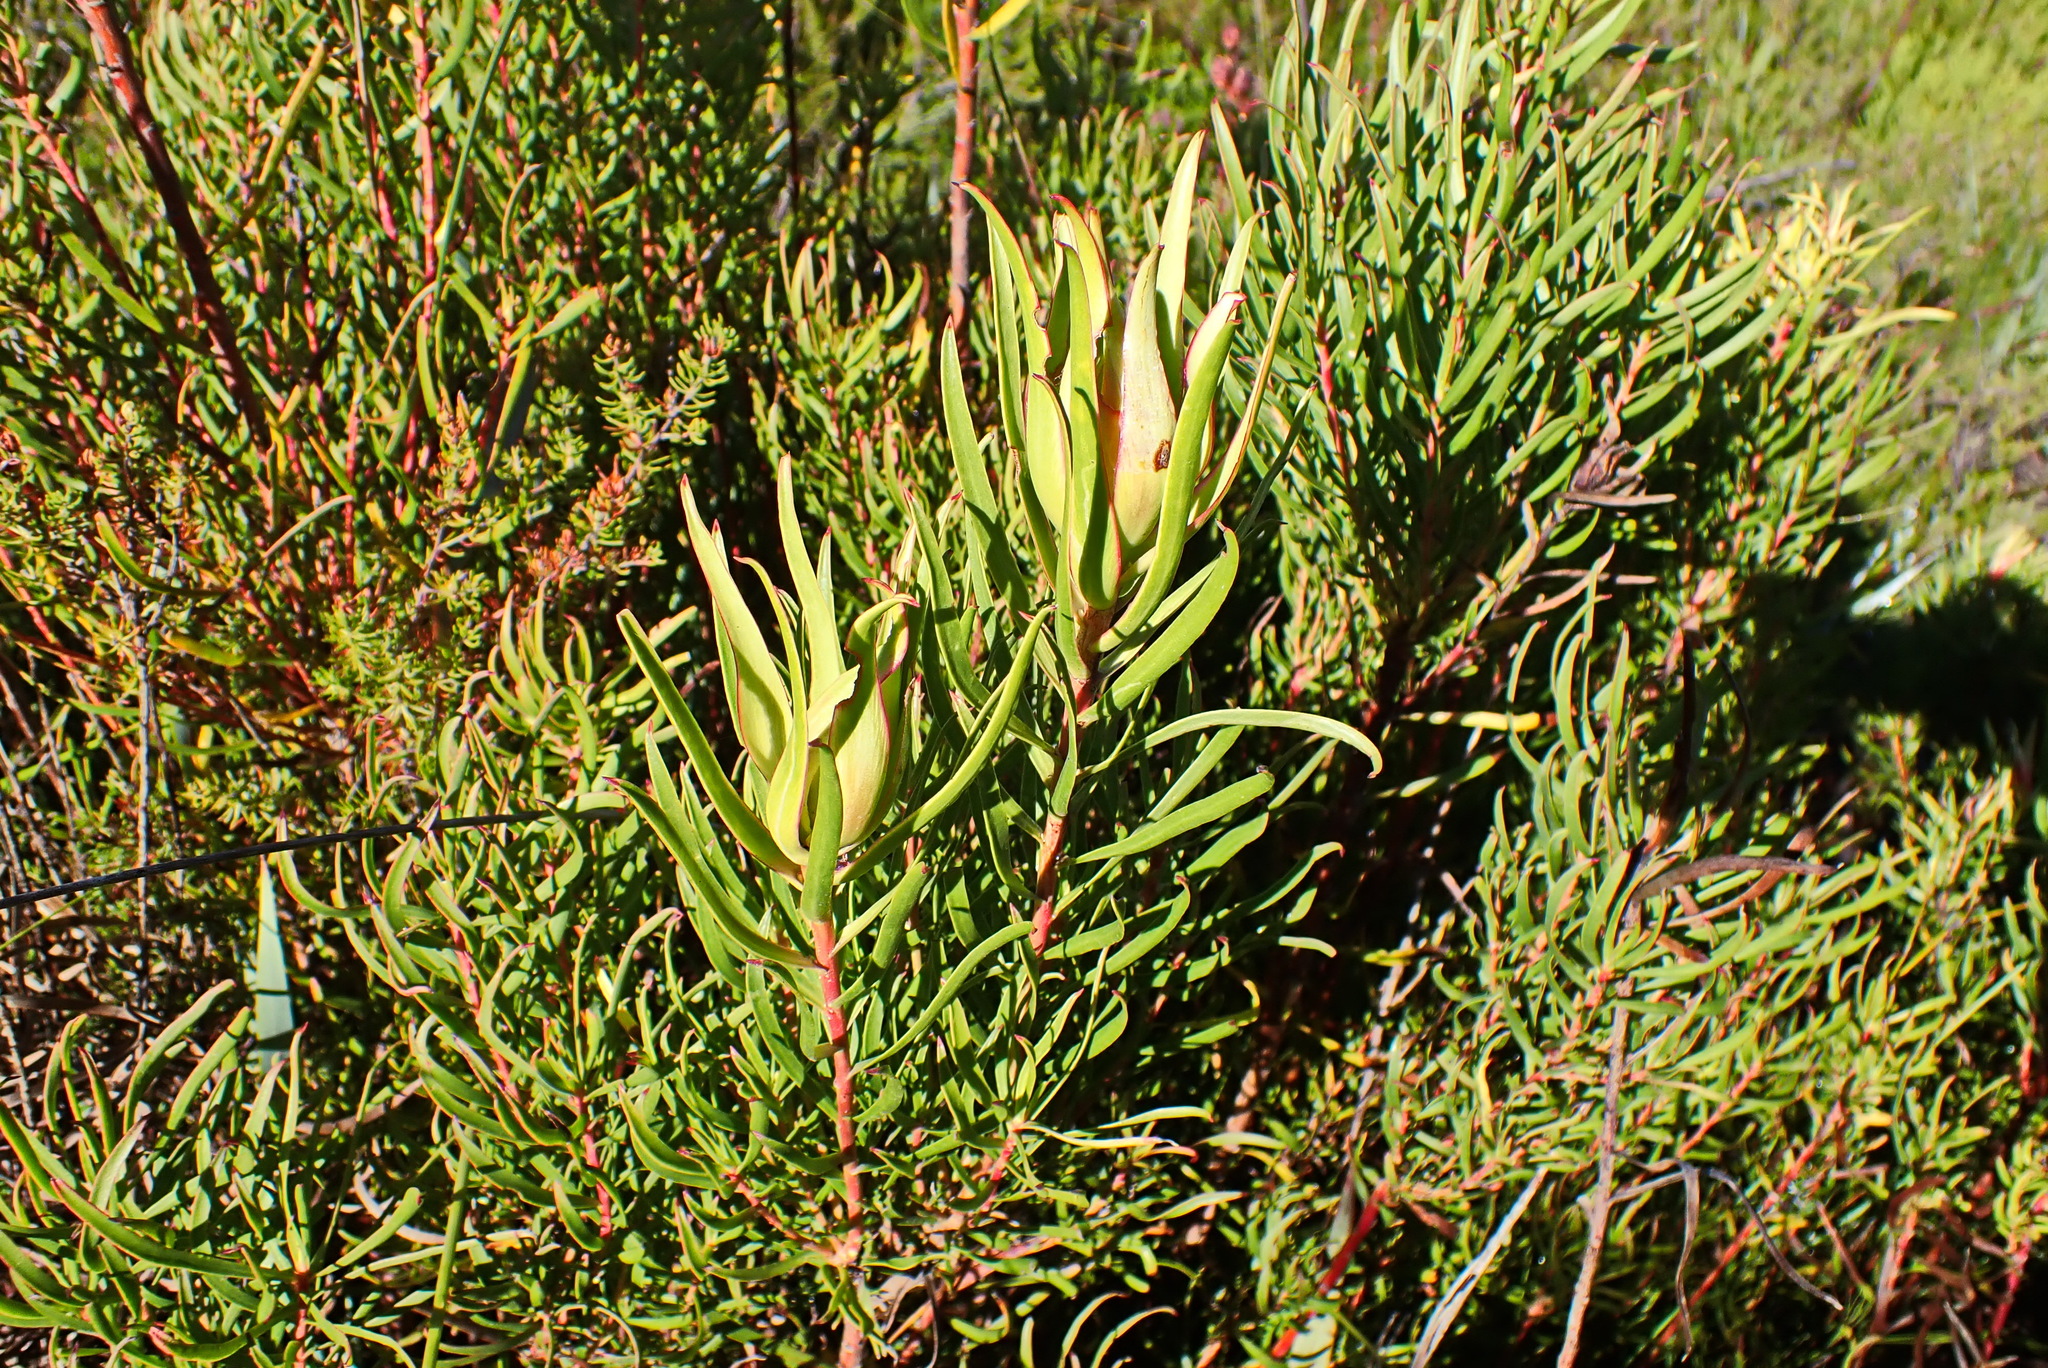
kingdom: Plantae
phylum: Tracheophyta
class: Magnoliopsida
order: Proteales
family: Proteaceae
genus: Leucadendron
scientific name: Leucadendron spissifolium
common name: Spear-leaf conebush
